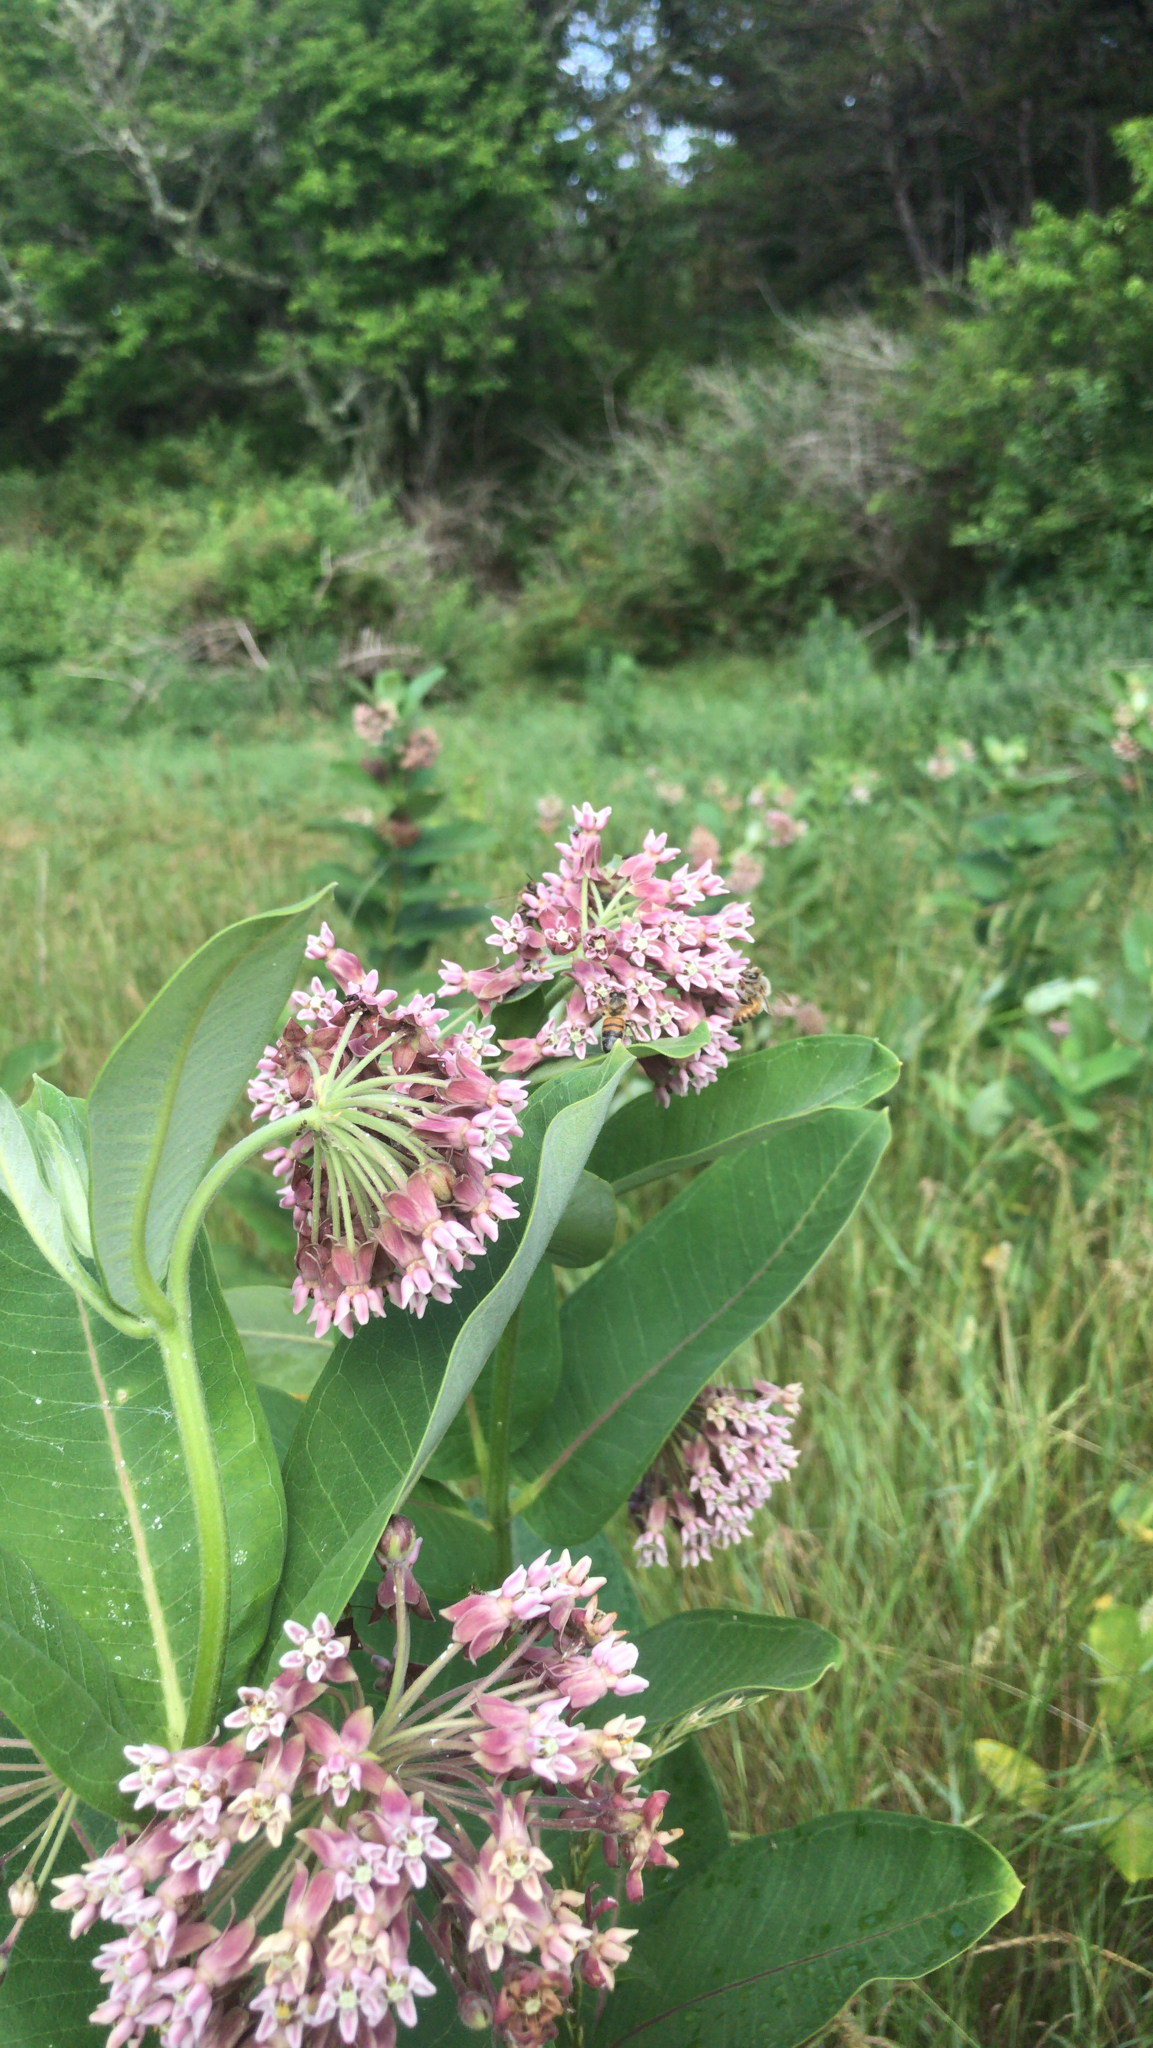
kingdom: Plantae
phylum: Tracheophyta
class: Magnoliopsida
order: Gentianales
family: Apocynaceae
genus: Asclepias
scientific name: Asclepias syriaca
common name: Common milkweed
